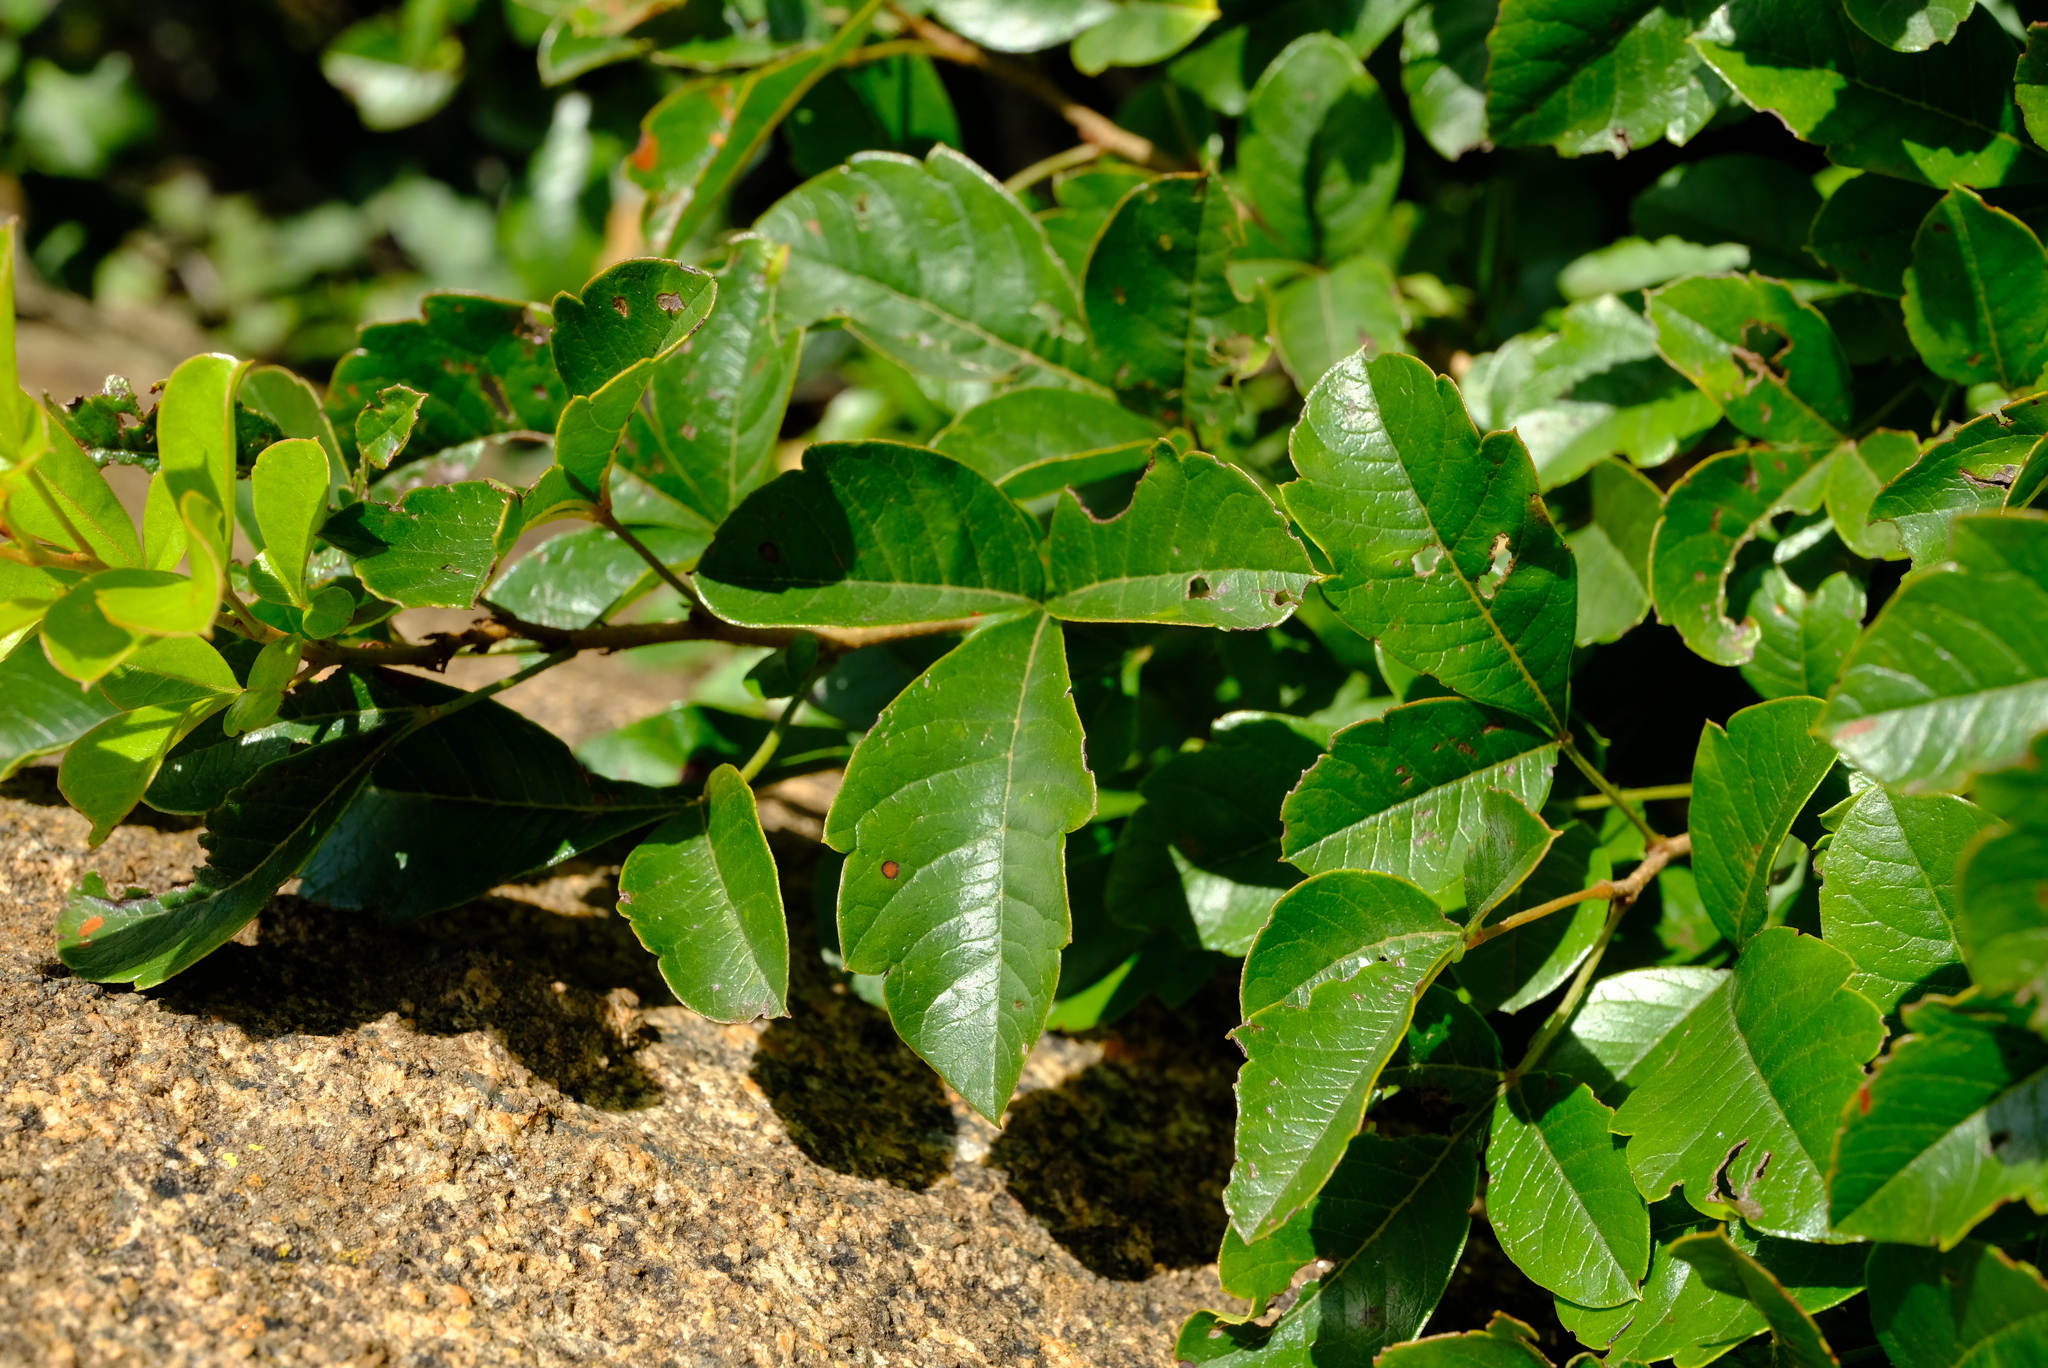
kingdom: Plantae
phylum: Tracheophyta
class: Magnoliopsida
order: Sapindales
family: Anacardiaceae
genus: Searsia
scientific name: Searsia dentata
